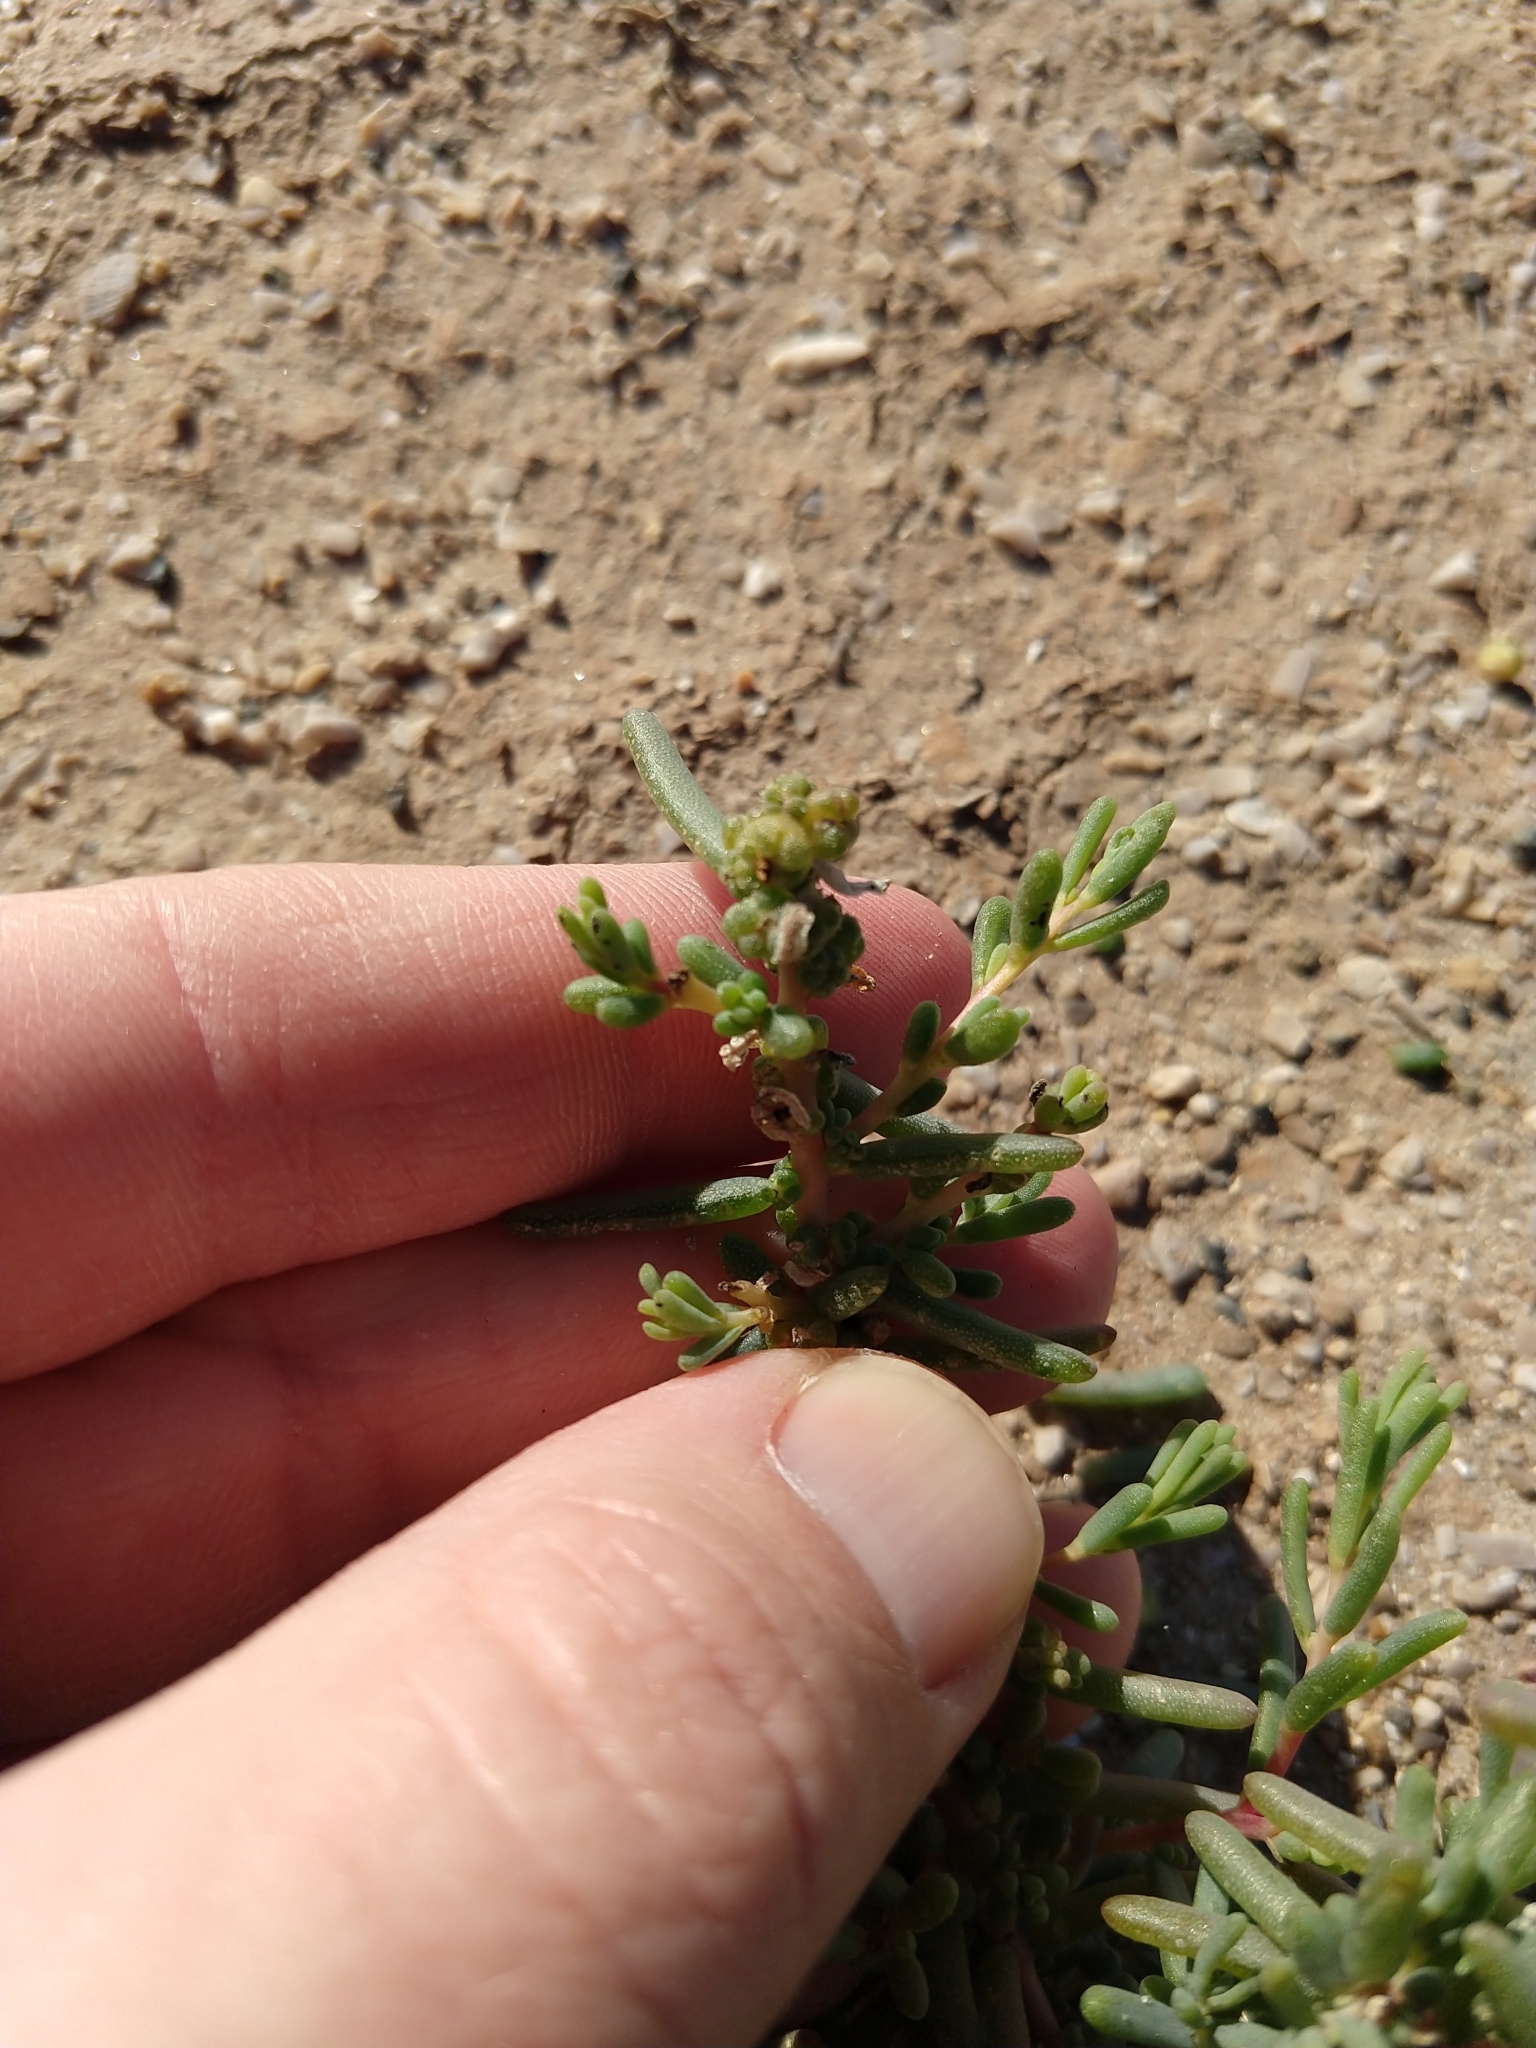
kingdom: Plantae
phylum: Tracheophyta
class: Magnoliopsida
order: Caryophyllales
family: Amaranthaceae
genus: Suaeda
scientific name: Suaeda nigra
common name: Bush seepweed
